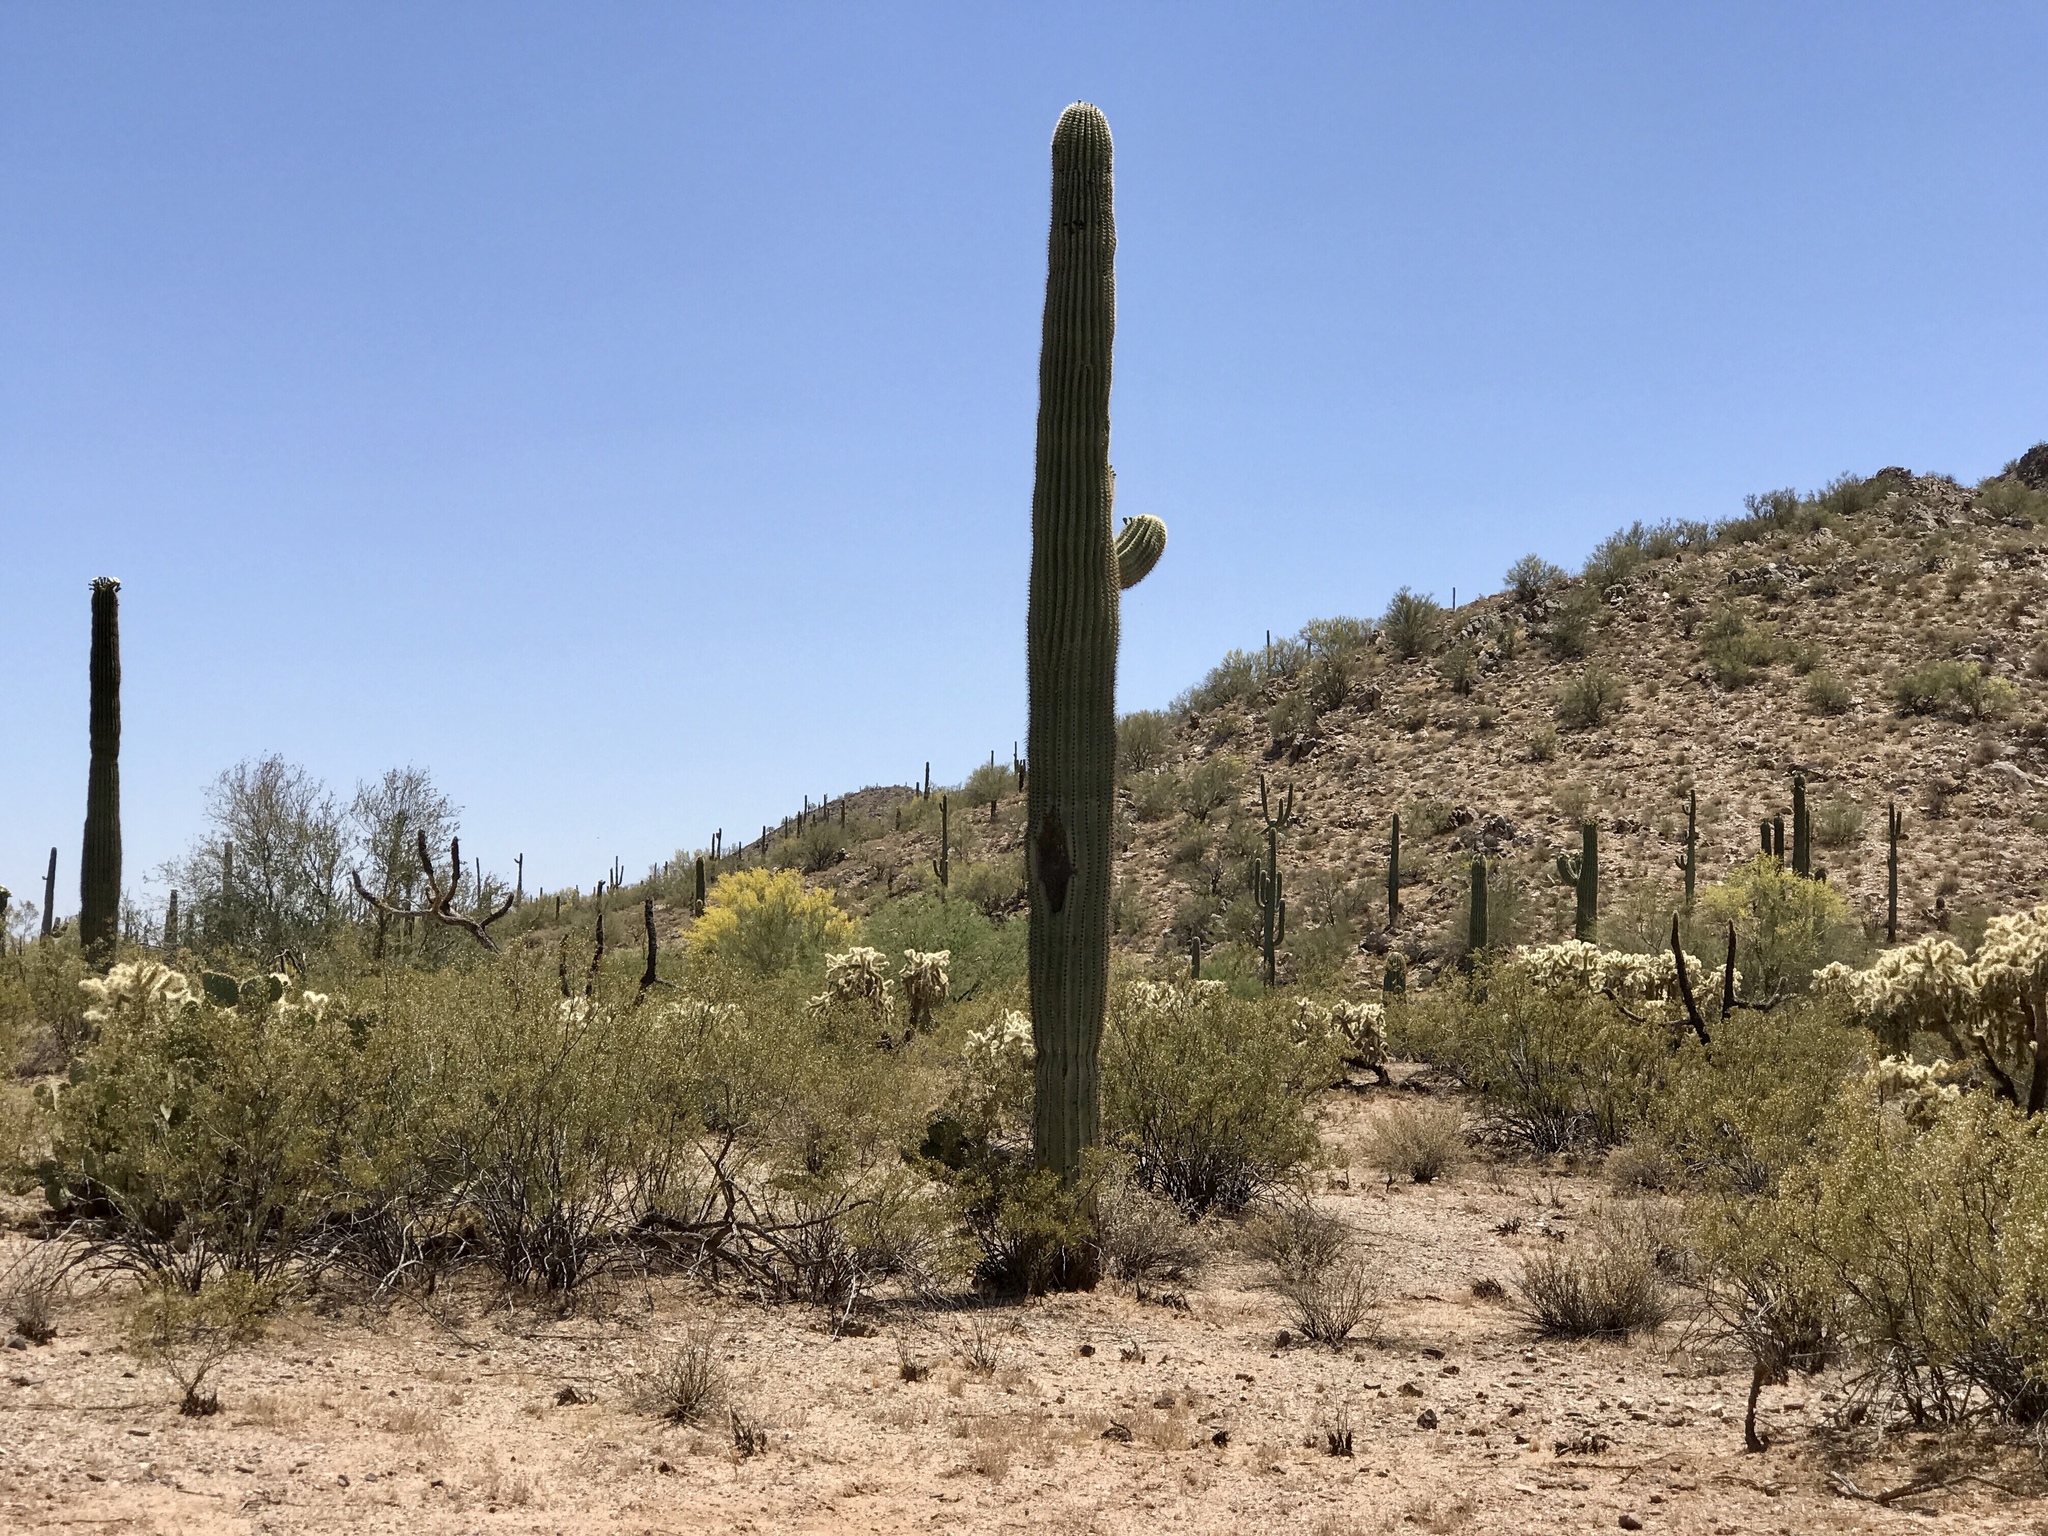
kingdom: Plantae
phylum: Tracheophyta
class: Magnoliopsida
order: Caryophyllales
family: Cactaceae
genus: Carnegiea
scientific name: Carnegiea gigantea
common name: Saguaro
